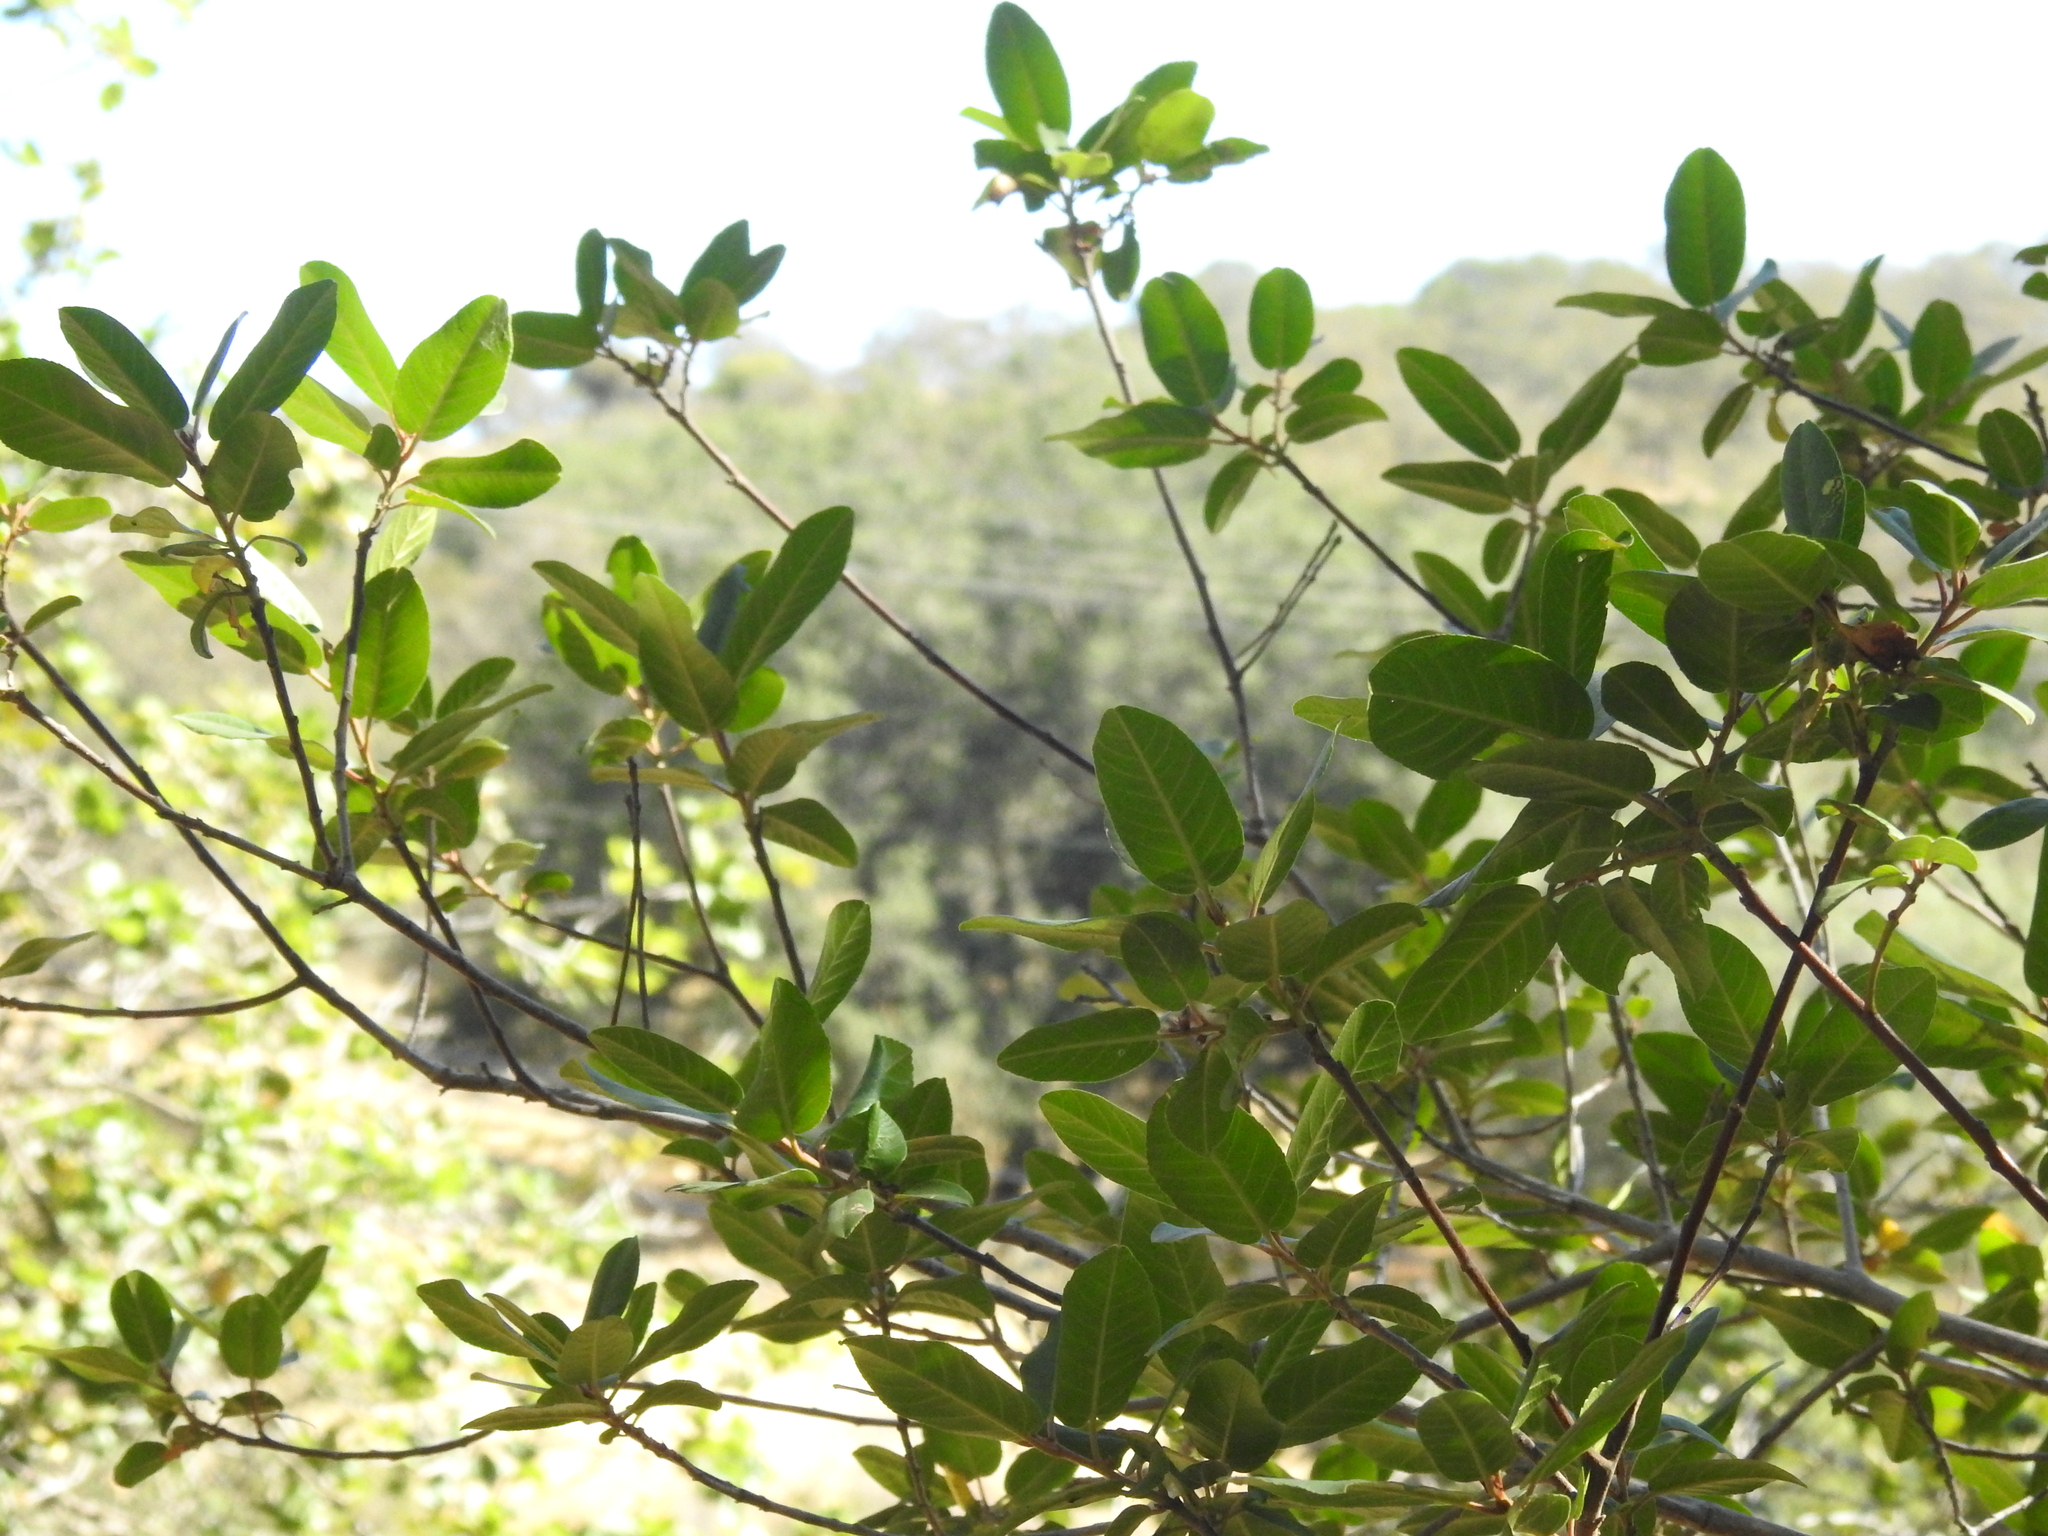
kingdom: Plantae
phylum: Tracheophyta
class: Magnoliopsida
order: Rosales
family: Rhamnaceae
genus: Frangula
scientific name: Frangula californica
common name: California buckthorn
